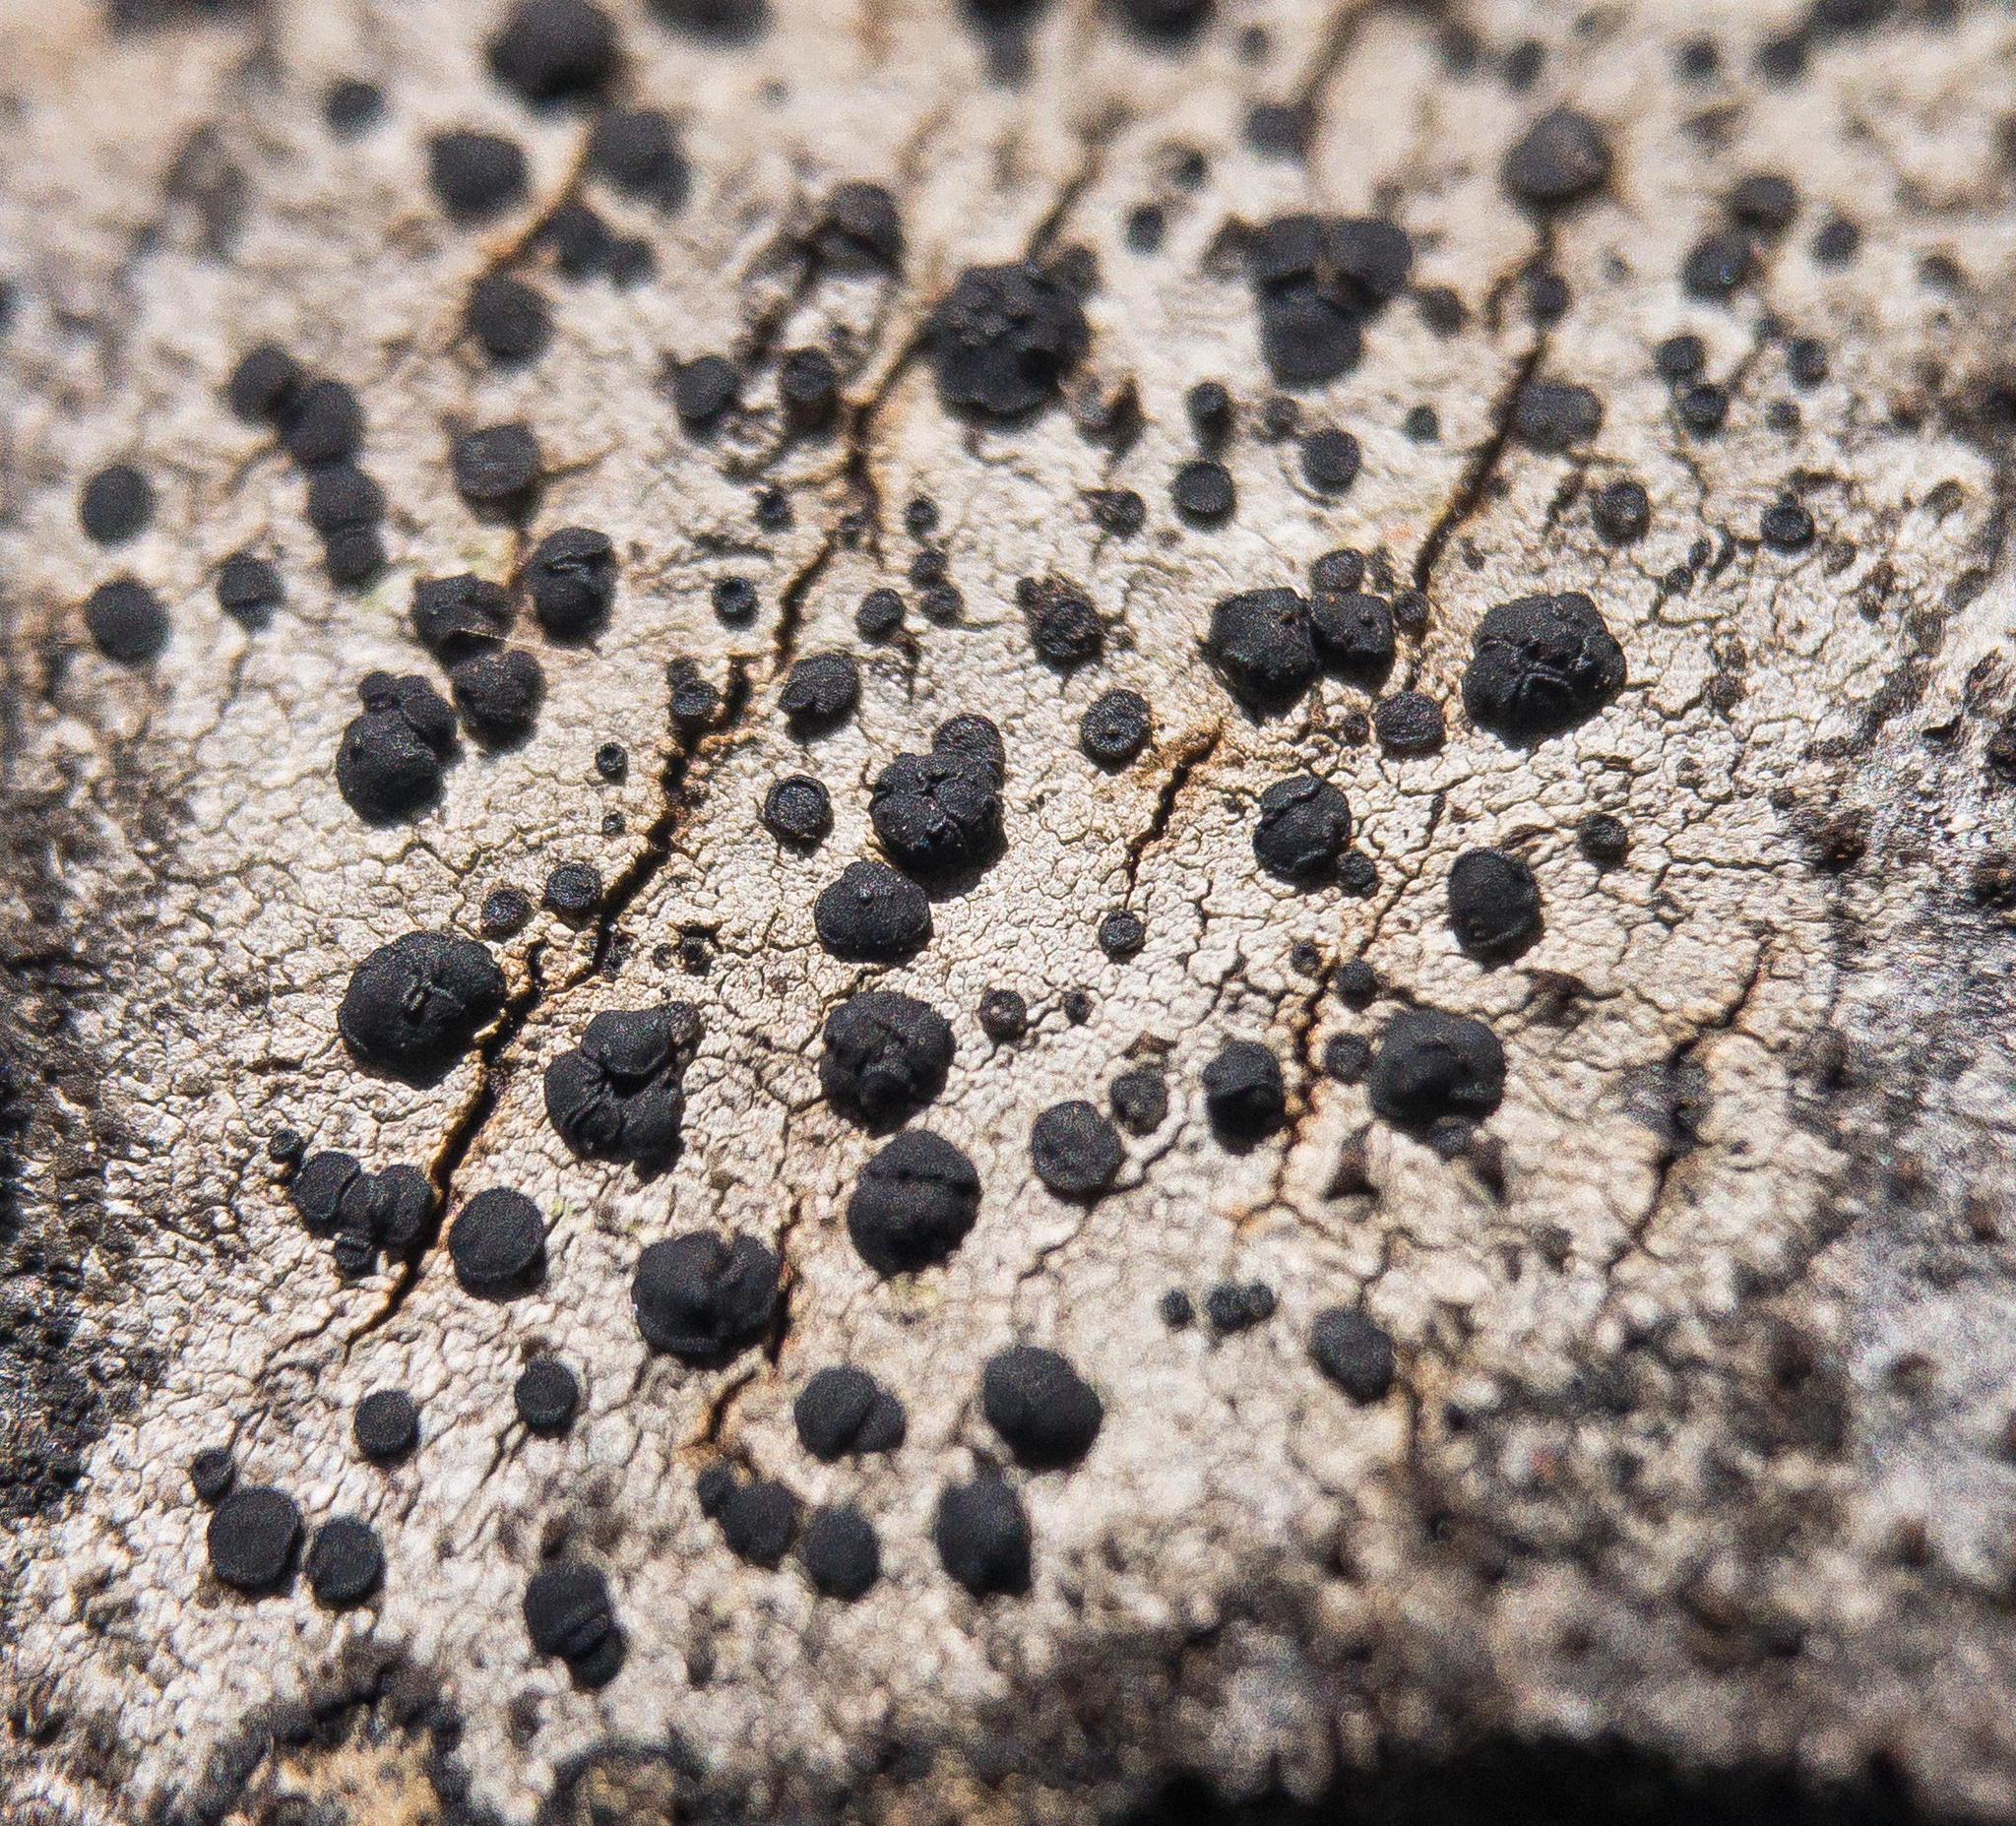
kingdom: Fungi
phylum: Ascomycota
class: Lecanoromycetes
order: Caliciales
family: Caliciaceae
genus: Buellia
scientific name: Buellia erubescens
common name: Common button lichen
